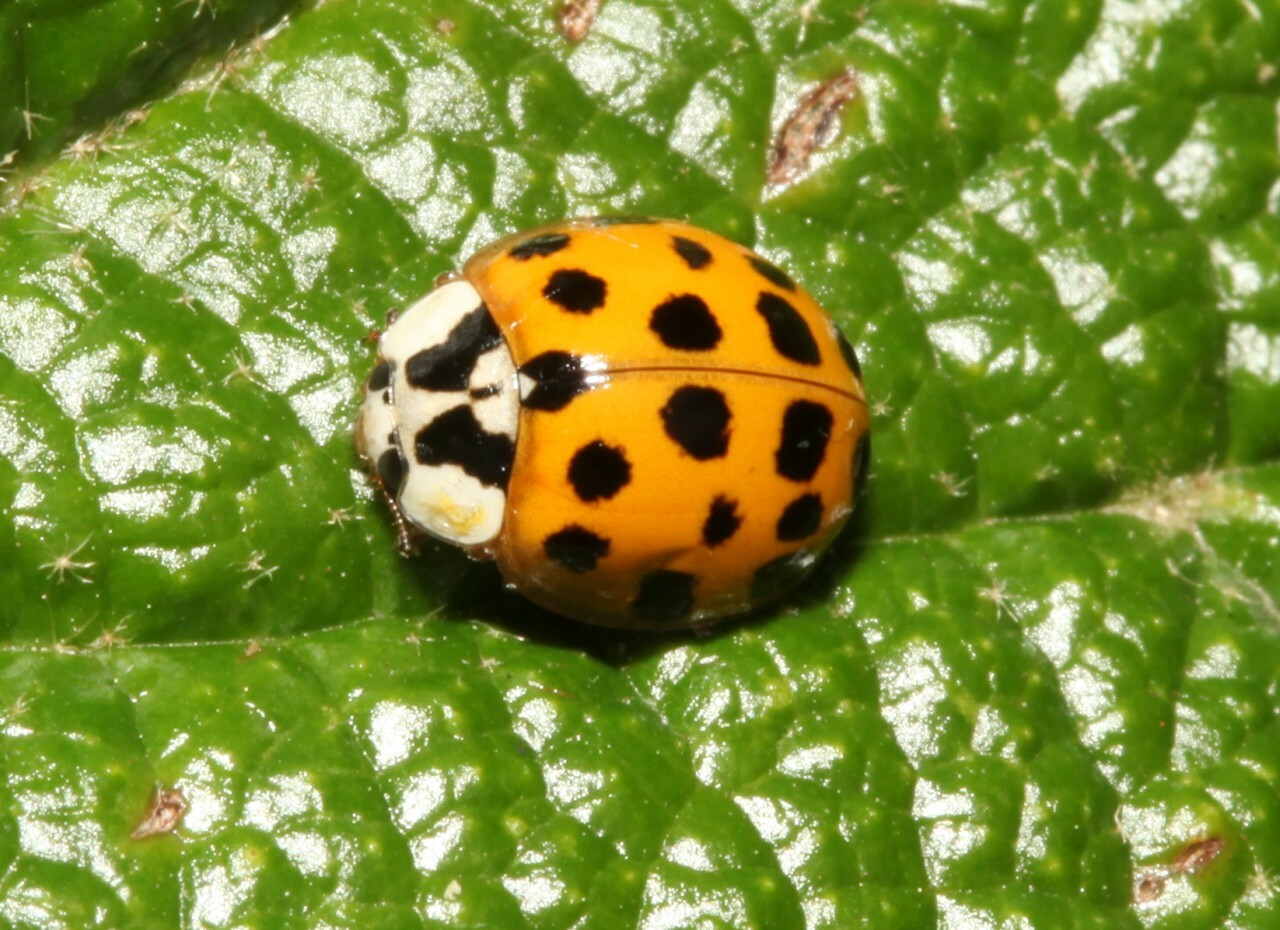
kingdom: Animalia
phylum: Arthropoda
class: Insecta
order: Coleoptera
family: Coccinellidae
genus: Harmonia
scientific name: Harmonia axyridis
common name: Harlequin ladybird
